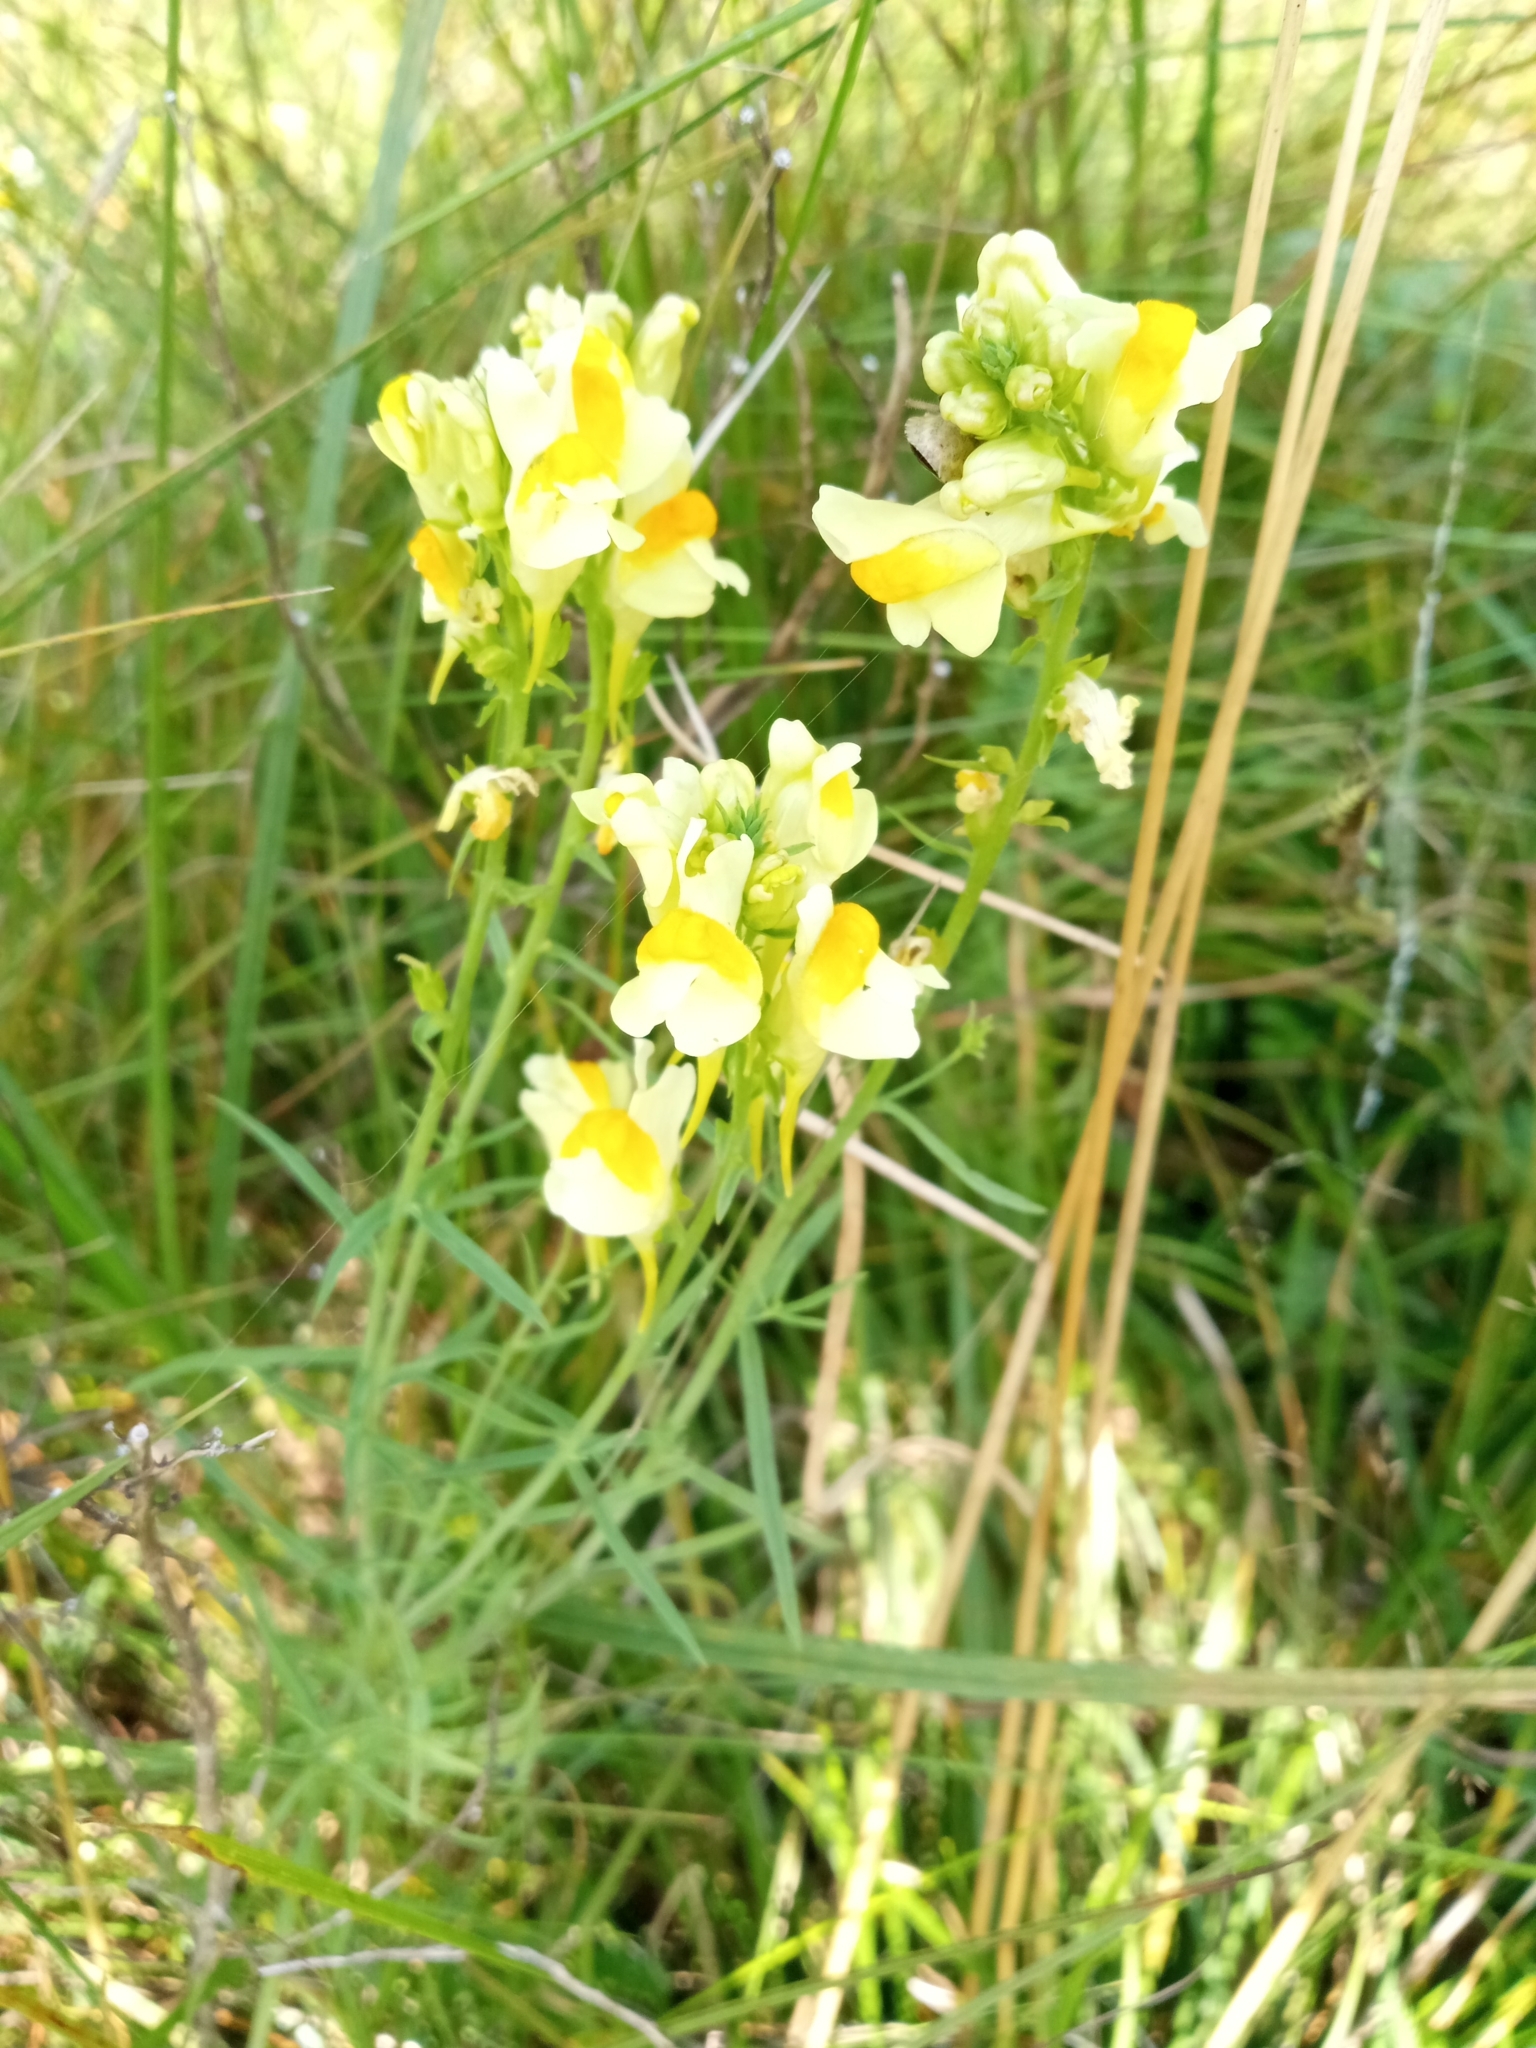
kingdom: Plantae
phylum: Tracheophyta
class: Magnoliopsida
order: Lamiales
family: Plantaginaceae
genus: Linaria
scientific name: Linaria vulgaris
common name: Butter and eggs
